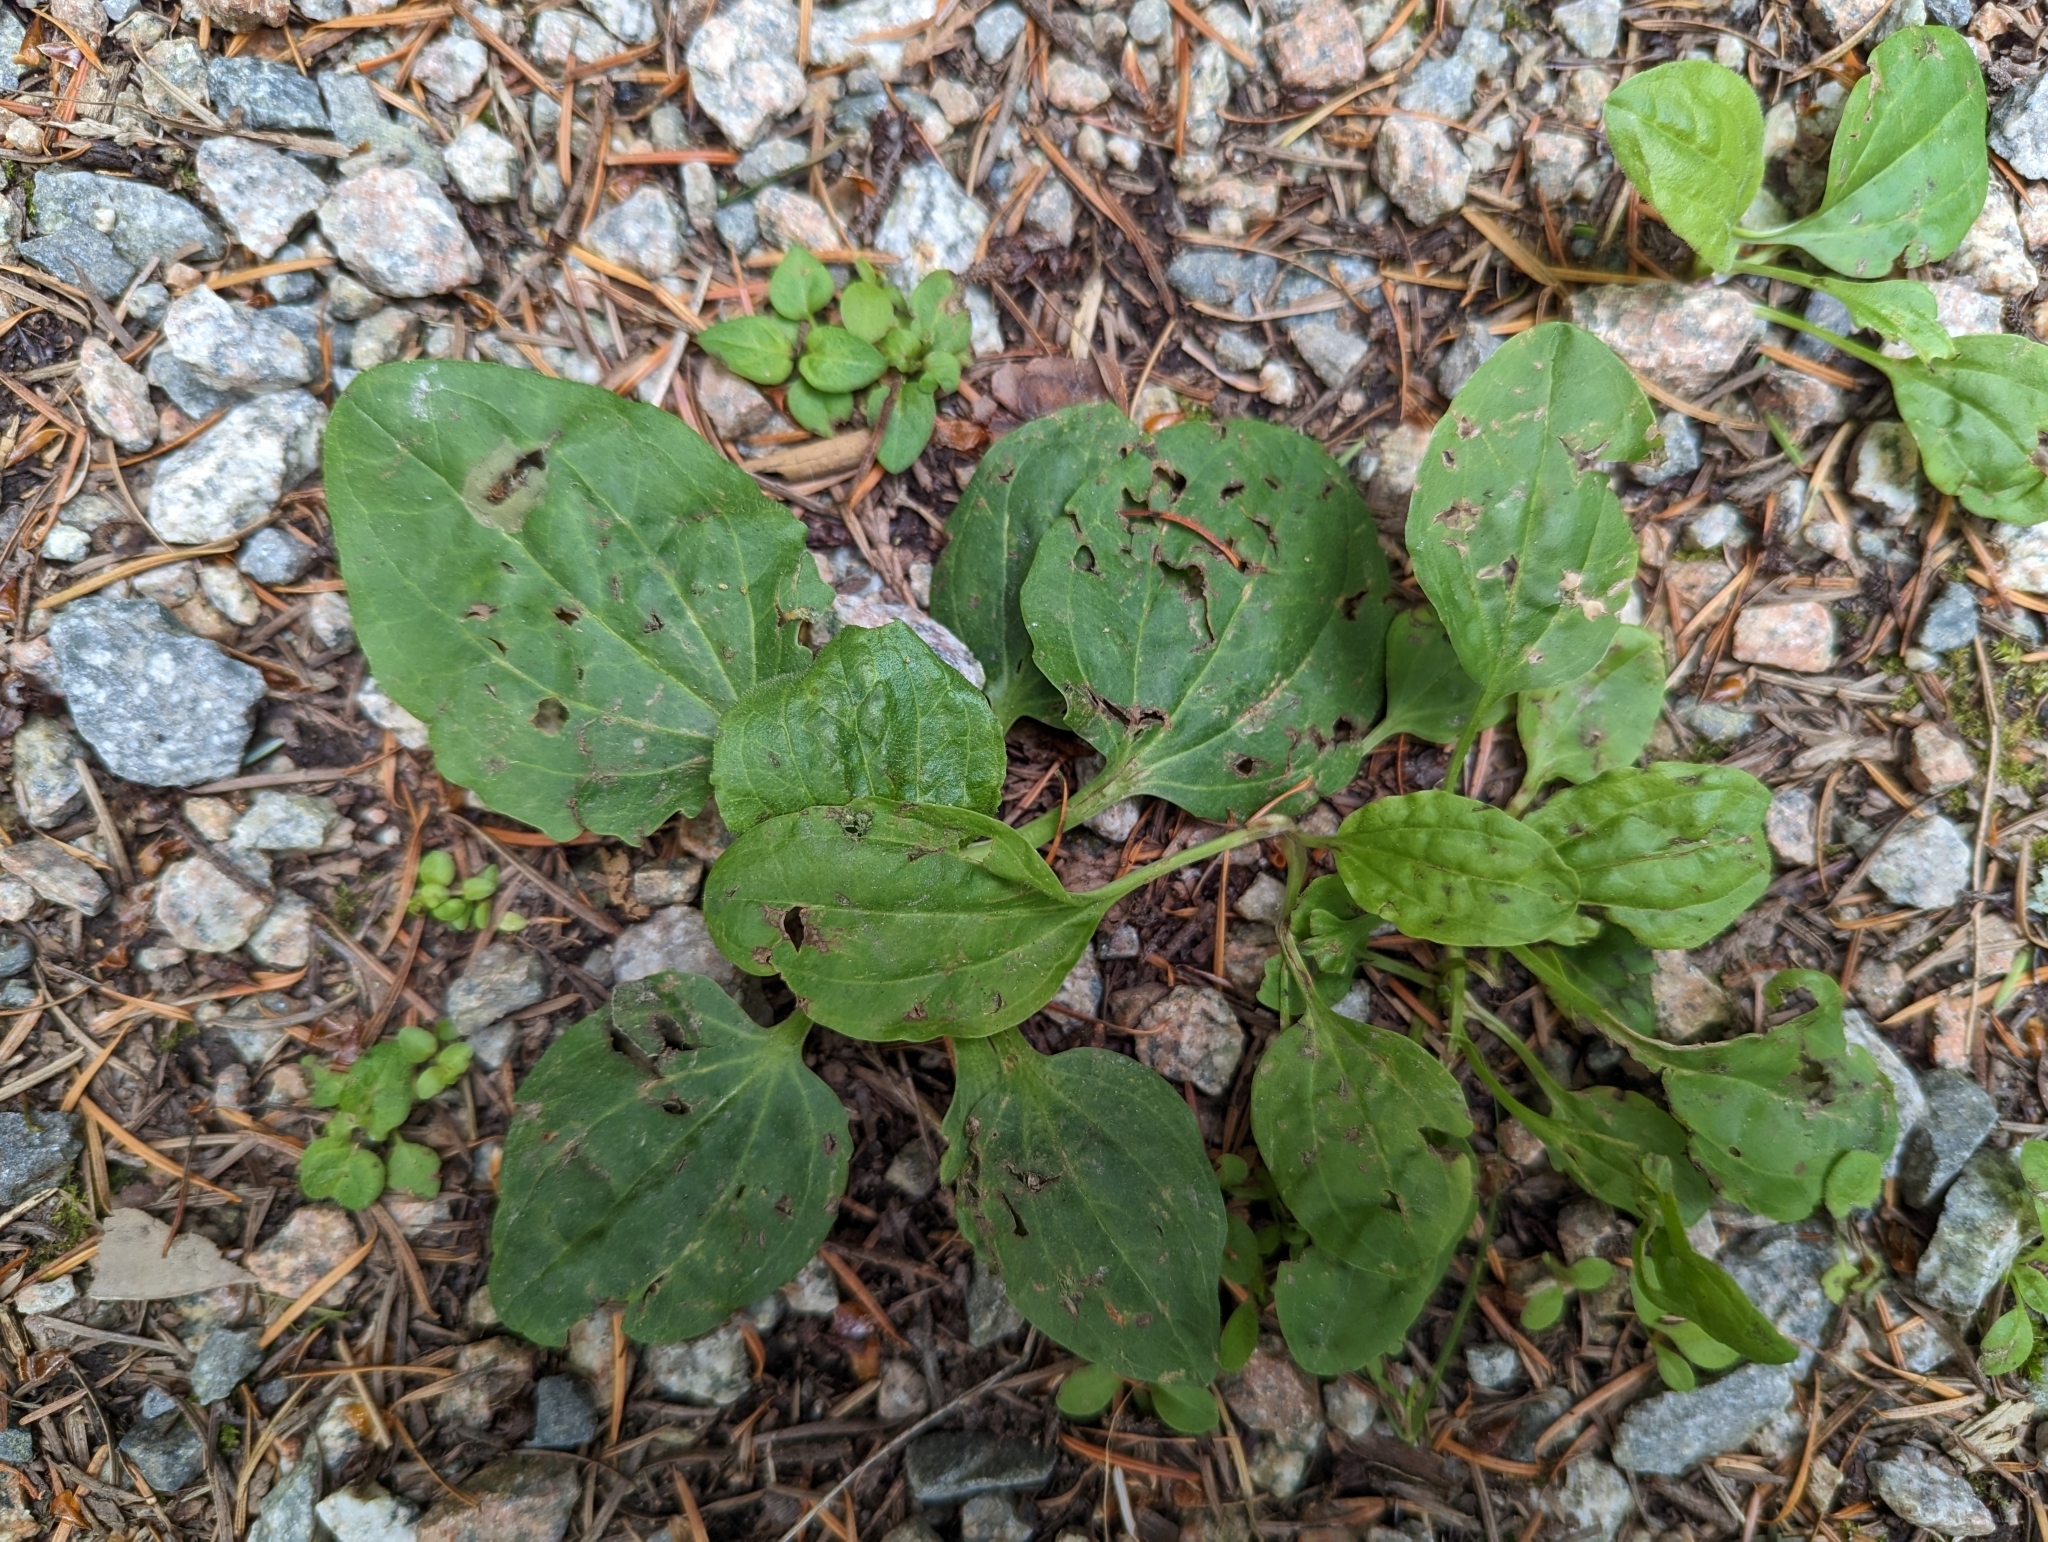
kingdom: Plantae
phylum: Tracheophyta
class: Magnoliopsida
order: Lamiales
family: Plantaginaceae
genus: Plantago
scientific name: Plantago major
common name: Common plantain
